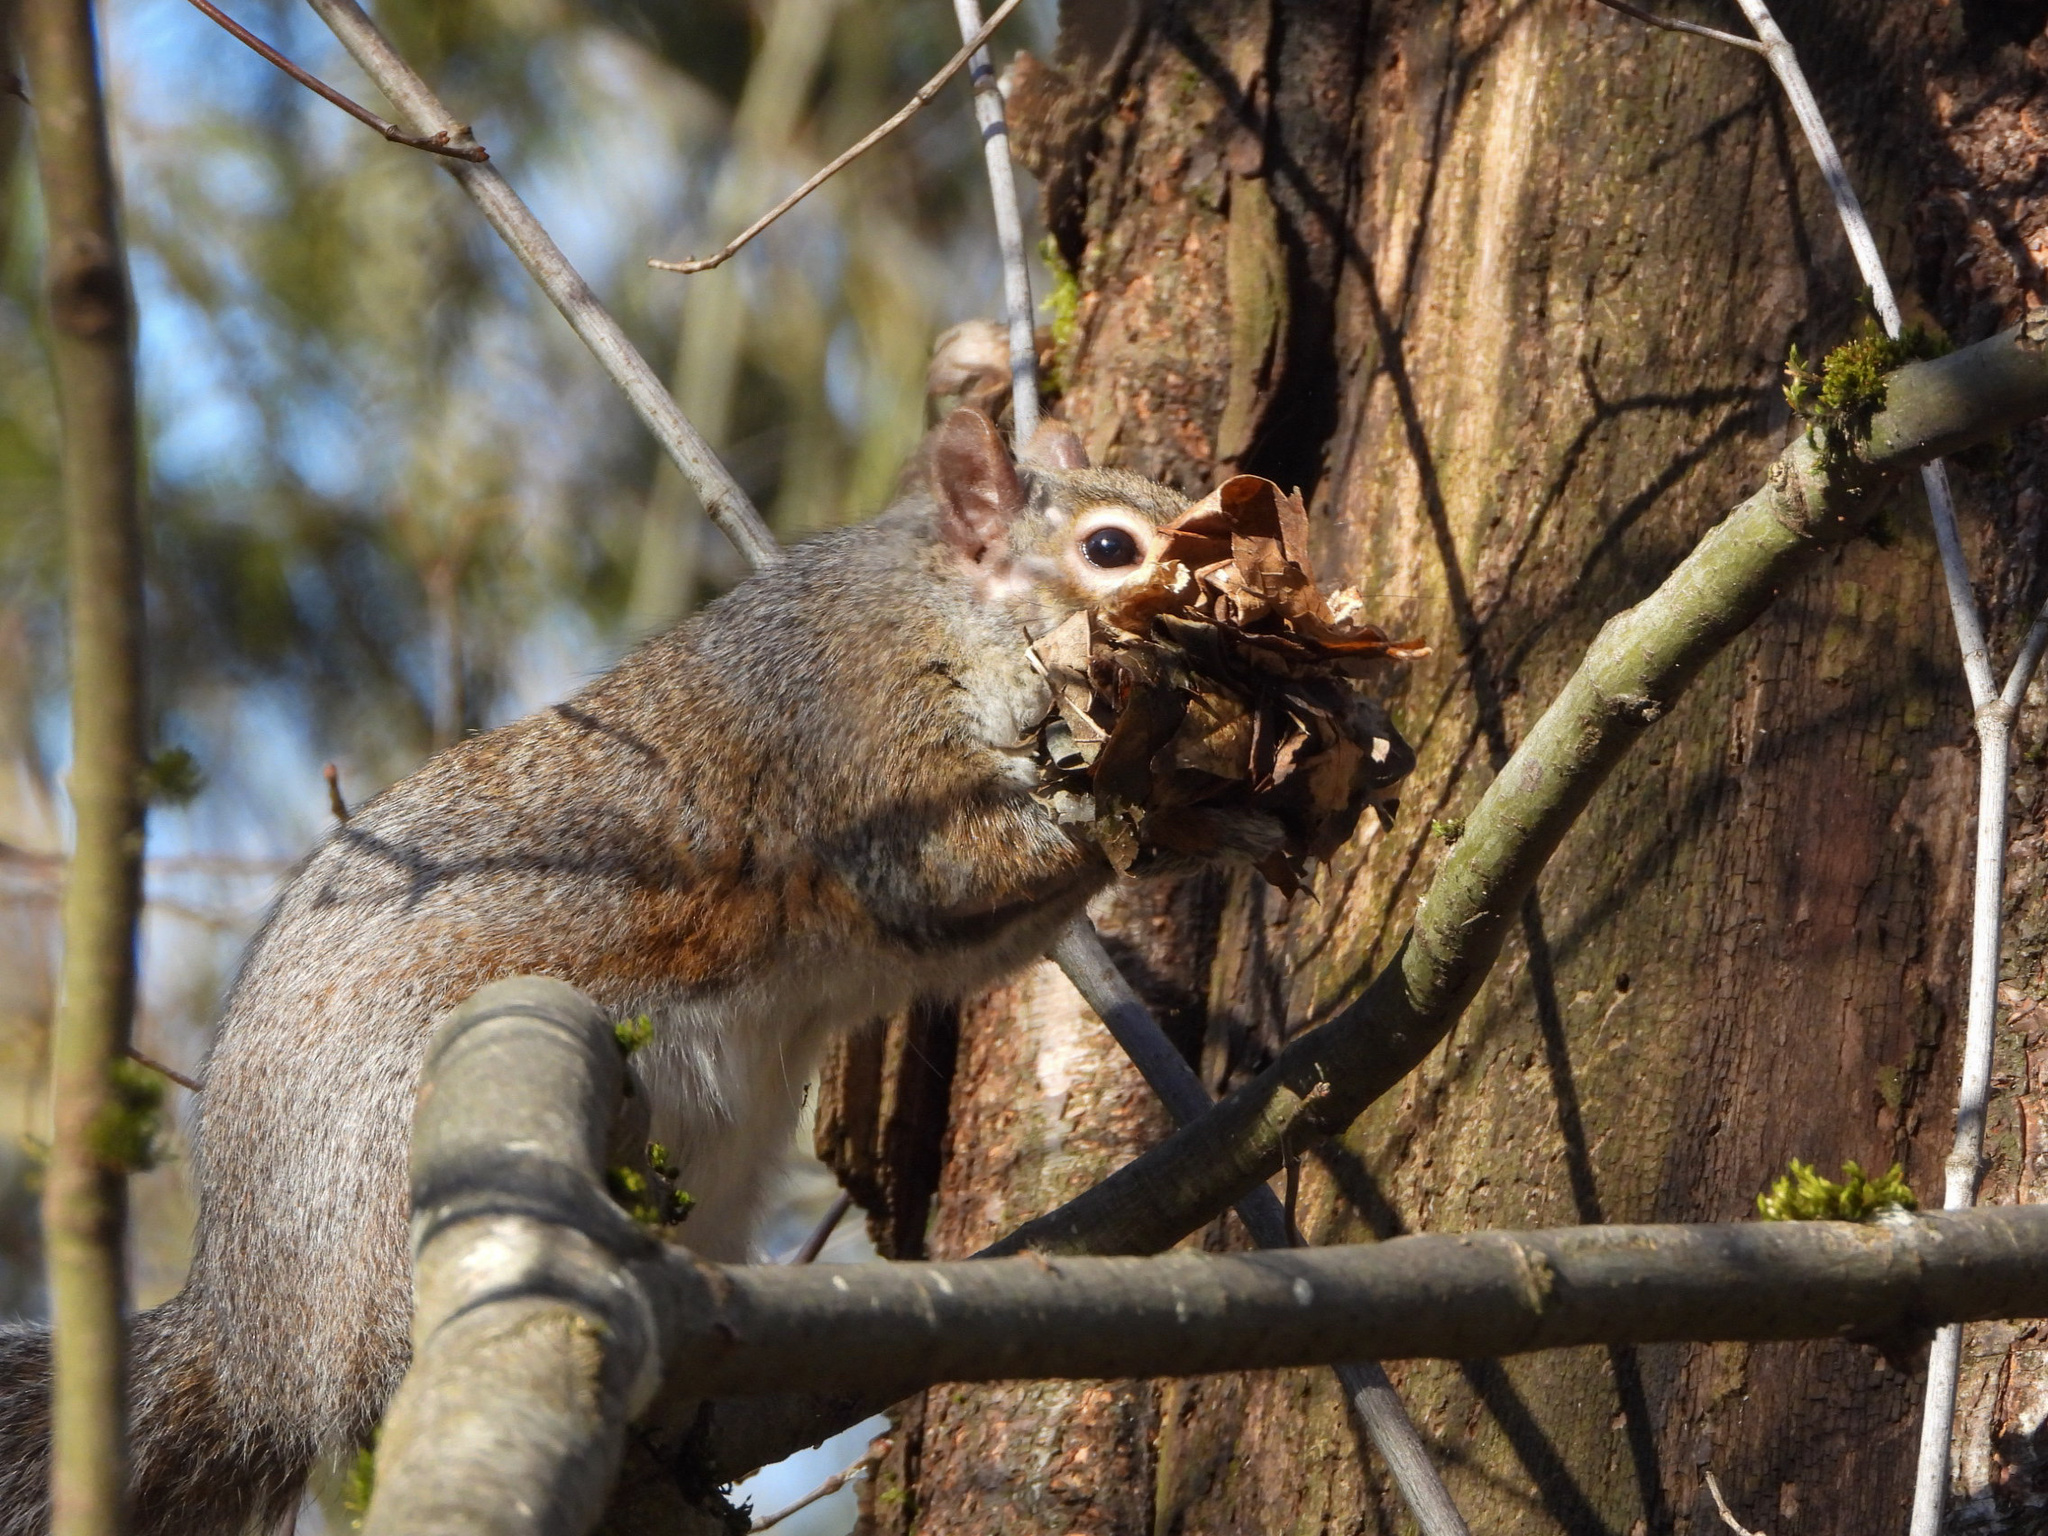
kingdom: Animalia
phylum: Chordata
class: Mammalia
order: Rodentia
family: Sciuridae
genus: Sciurus
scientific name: Sciurus carolinensis
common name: Eastern gray squirrel
